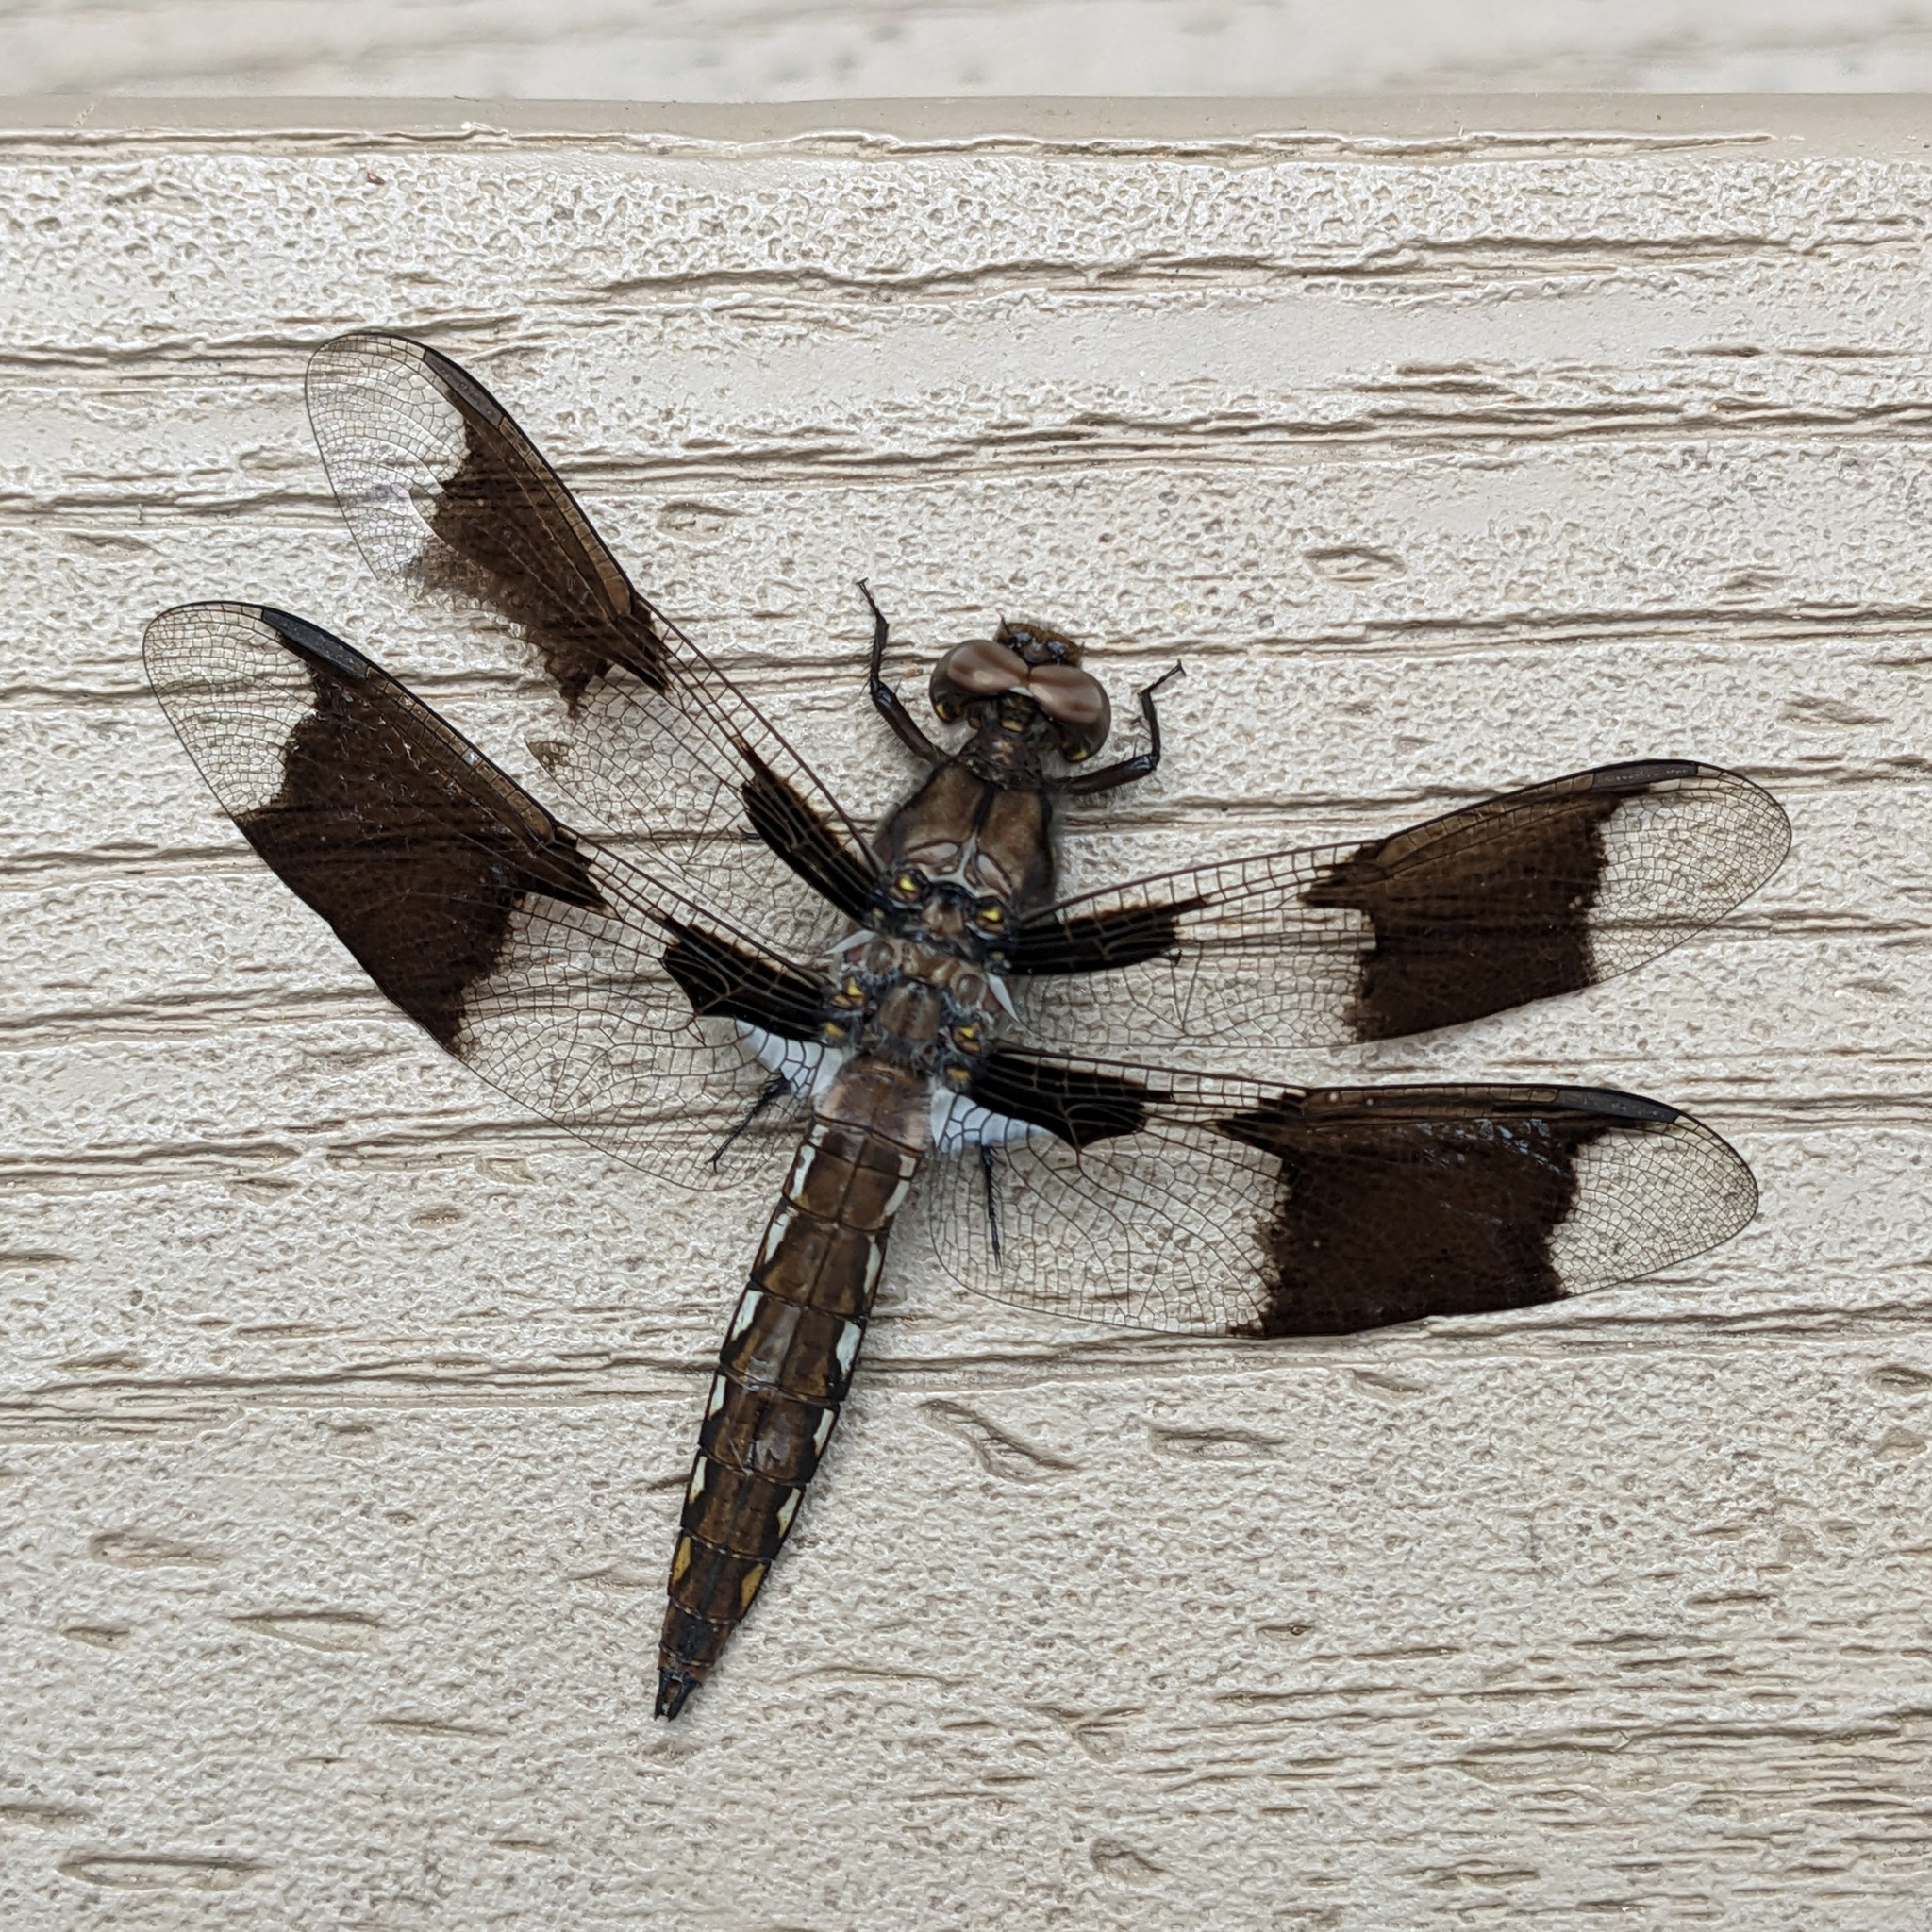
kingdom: Animalia
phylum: Arthropoda
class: Insecta
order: Odonata
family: Libellulidae
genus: Plathemis
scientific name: Plathemis lydia
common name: Common whitetail
